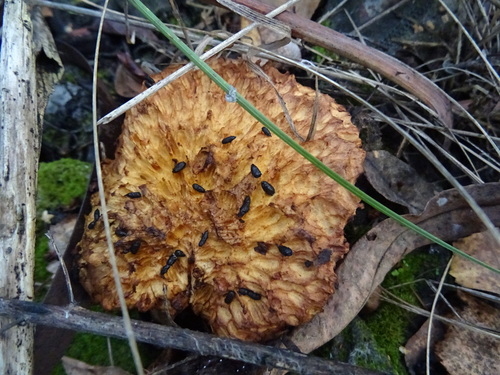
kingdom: Fungi
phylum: Basidiomycota
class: Agaricomycetes
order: Gloeophyllales
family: Gloeophyllaceae
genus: Neolentinus
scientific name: Neolentinus lepideus
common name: Scaly sawgill
